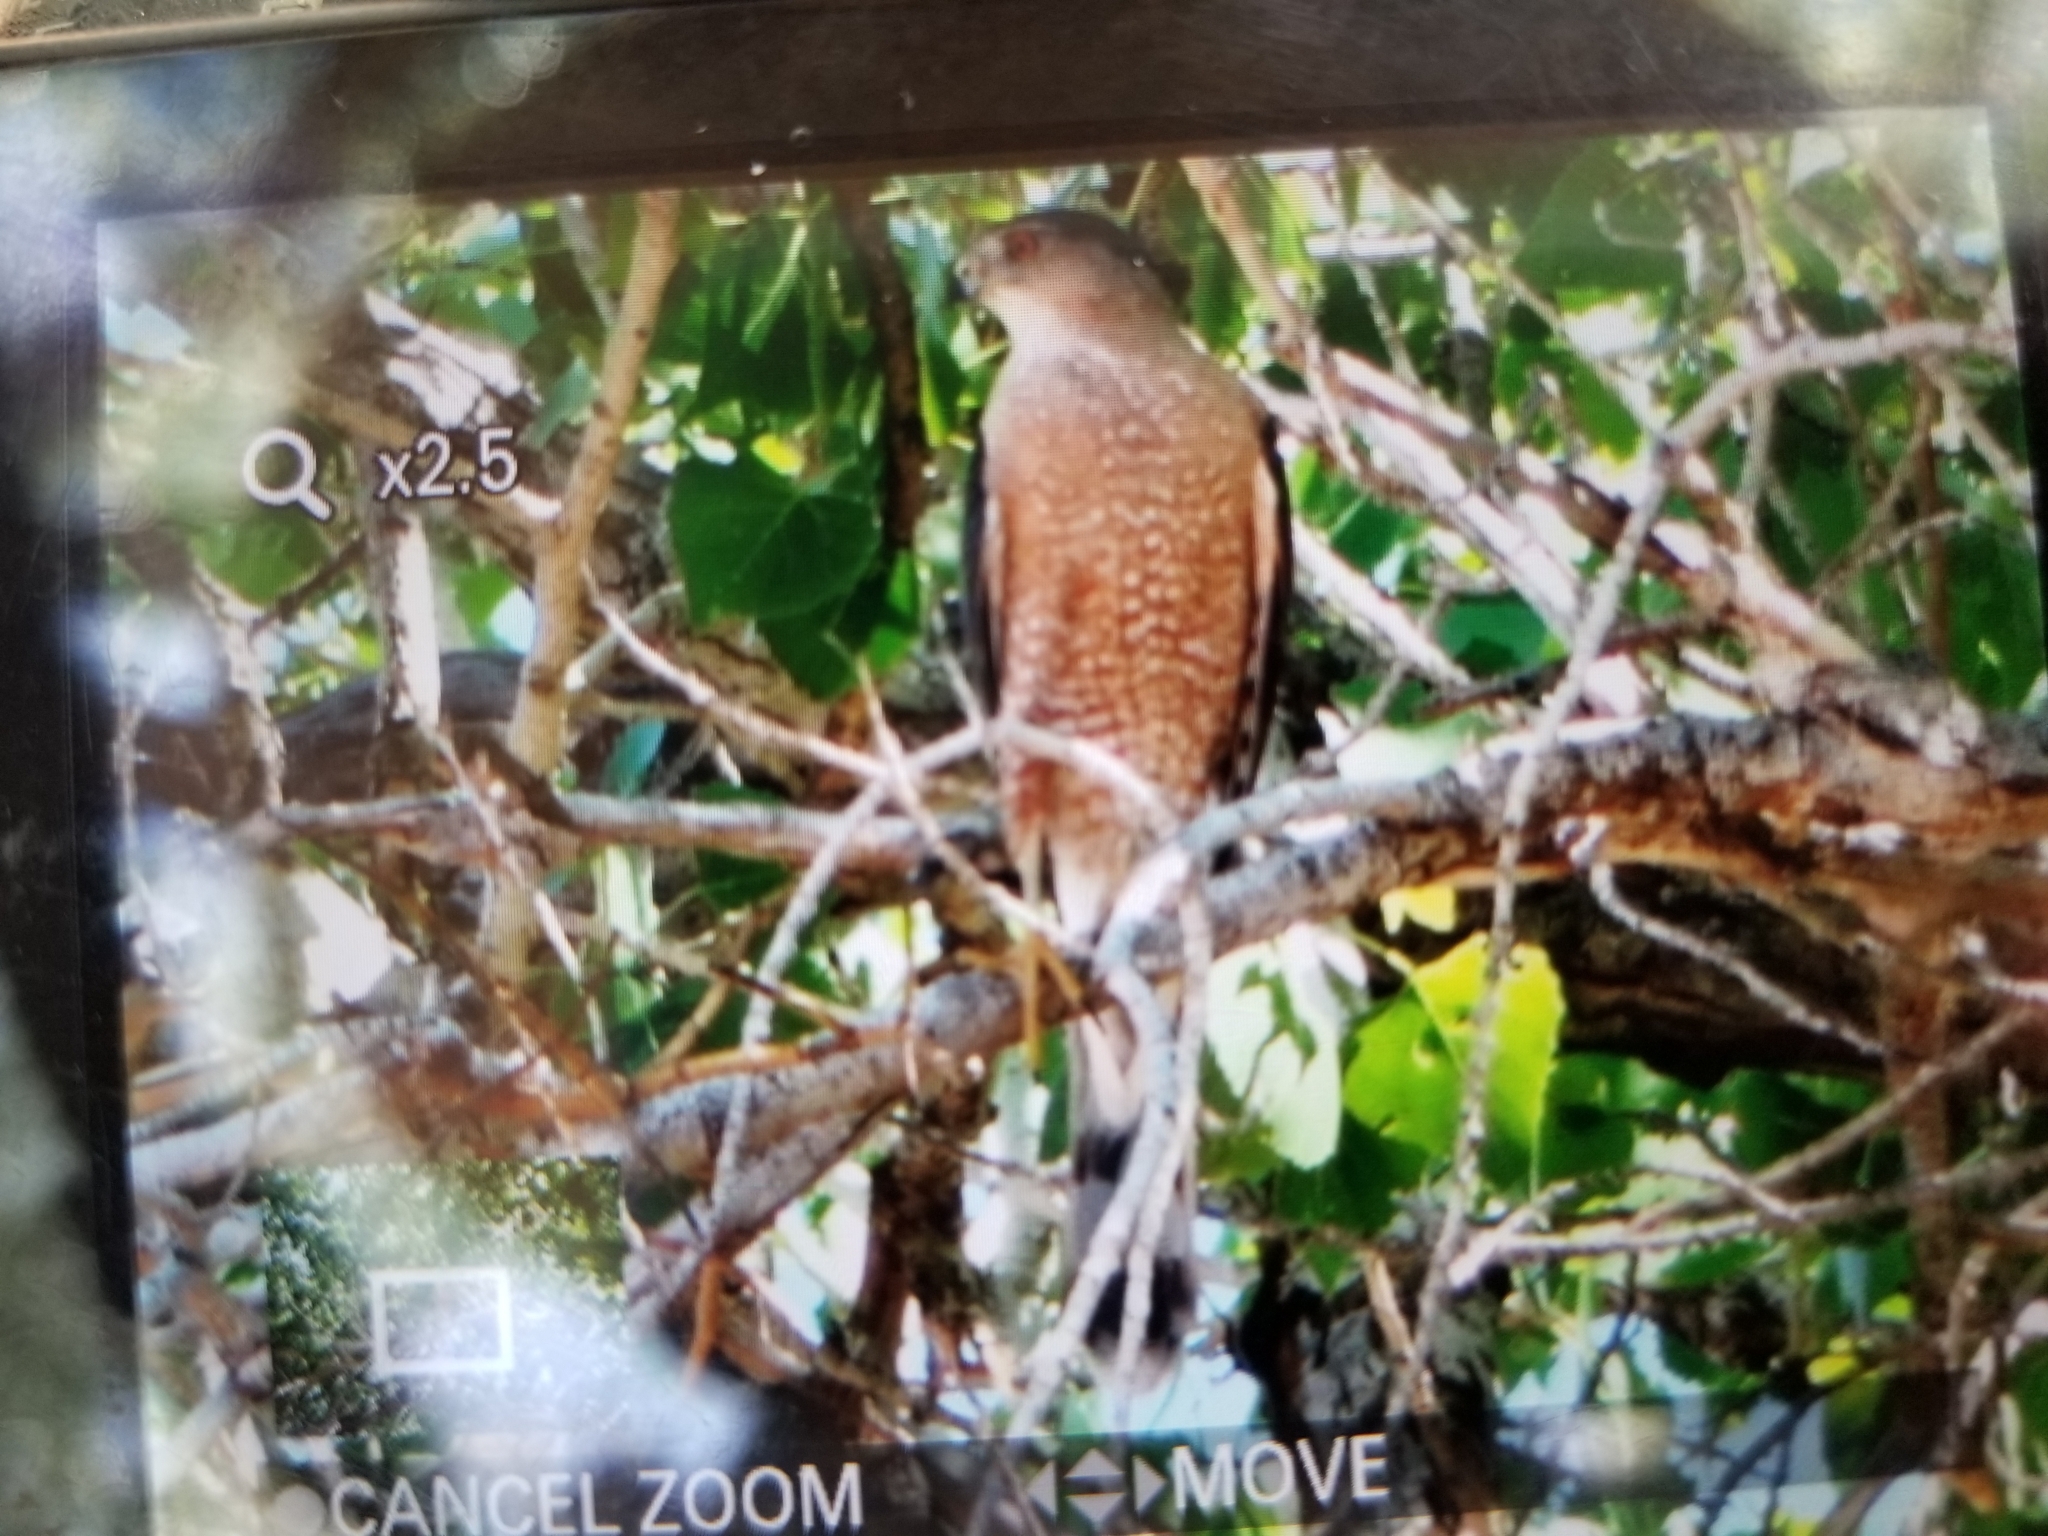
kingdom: Animalia
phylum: Chordata
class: Aves
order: Accipitriformes
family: Accipitridae
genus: Accipiter
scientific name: Accipiter cooperii
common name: Cooper's hawk
